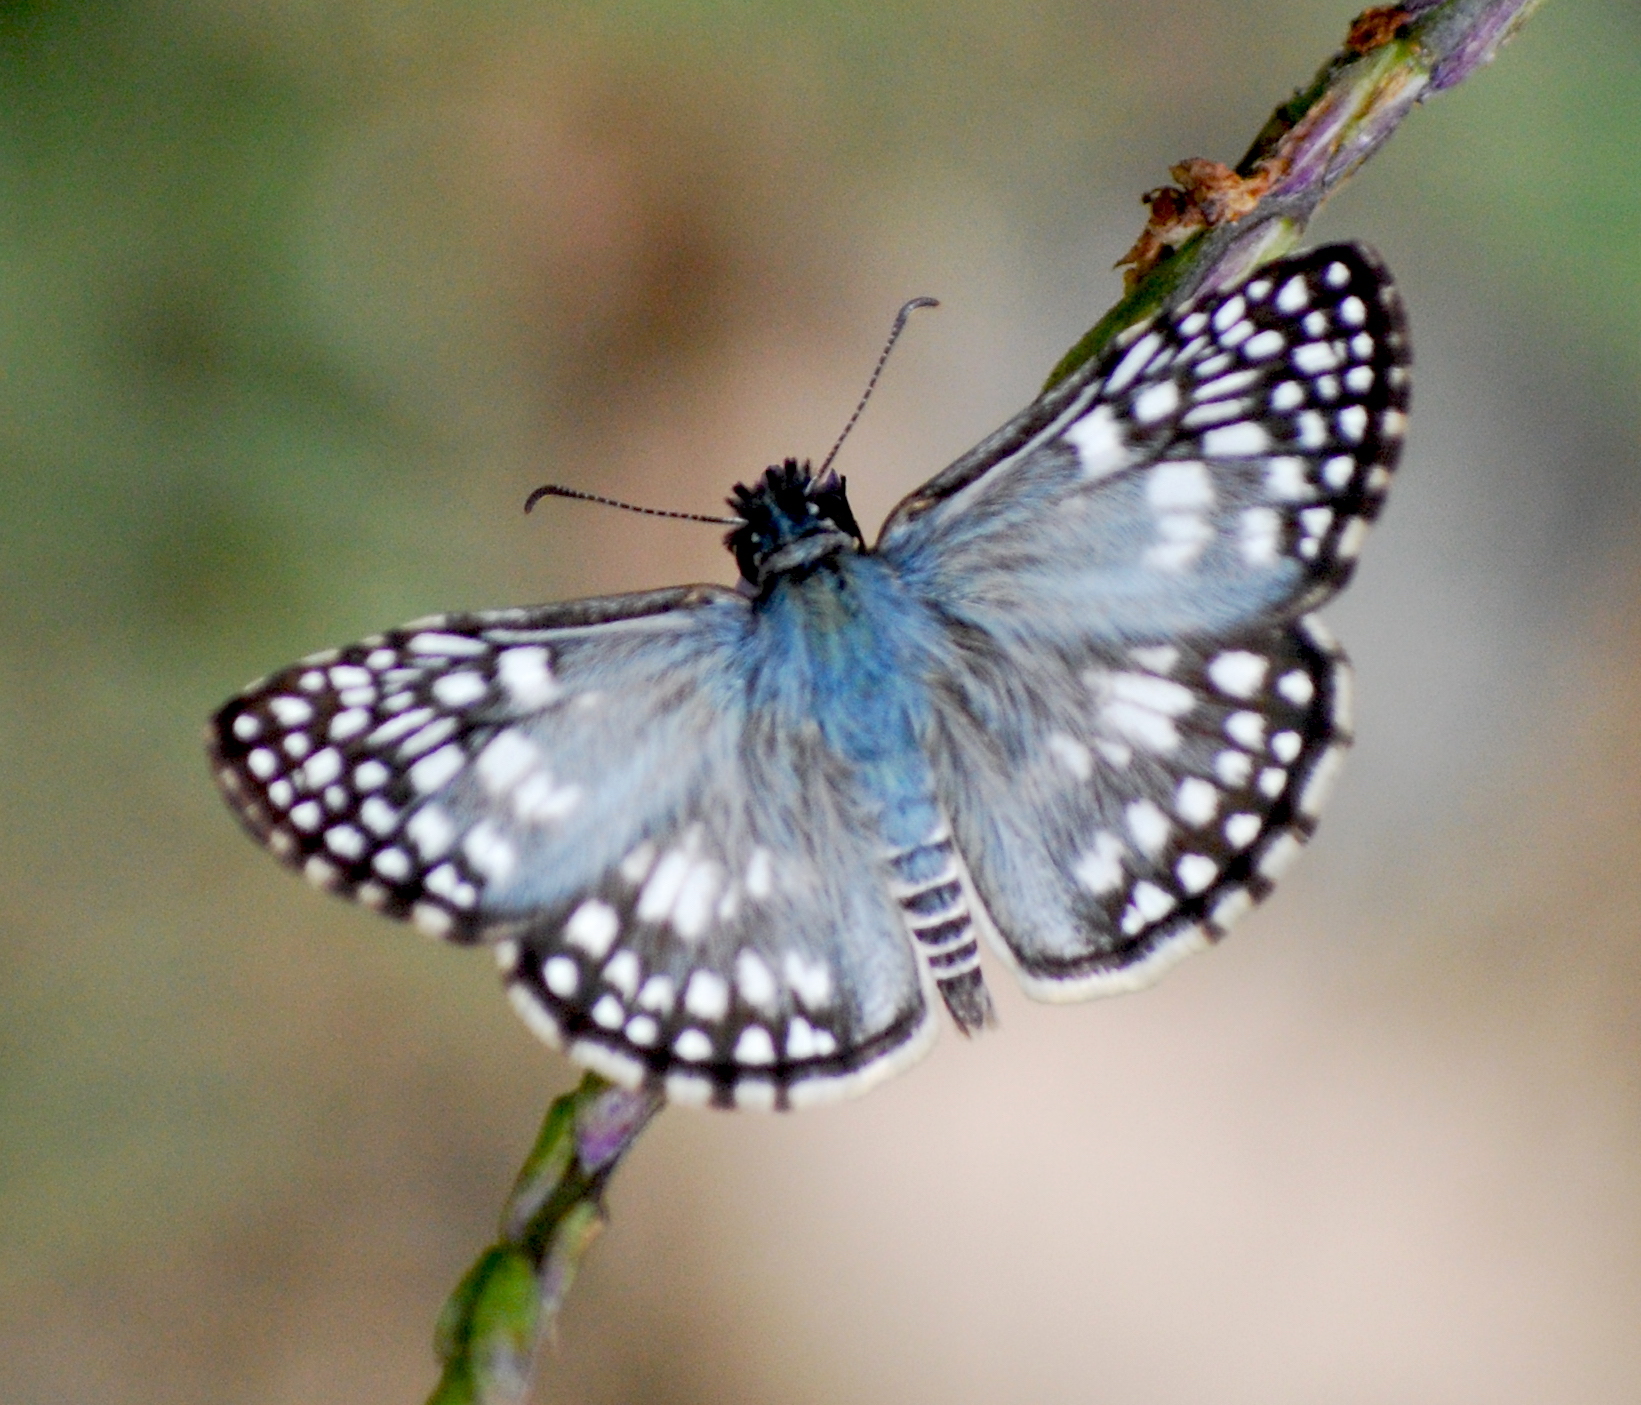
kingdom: Animalia
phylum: Arthropoda
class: Insecta
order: Lepidoptera
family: Hesperiidae
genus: Pyrgus
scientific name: Pyrgus oileus
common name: Tropical checkered-skipper
